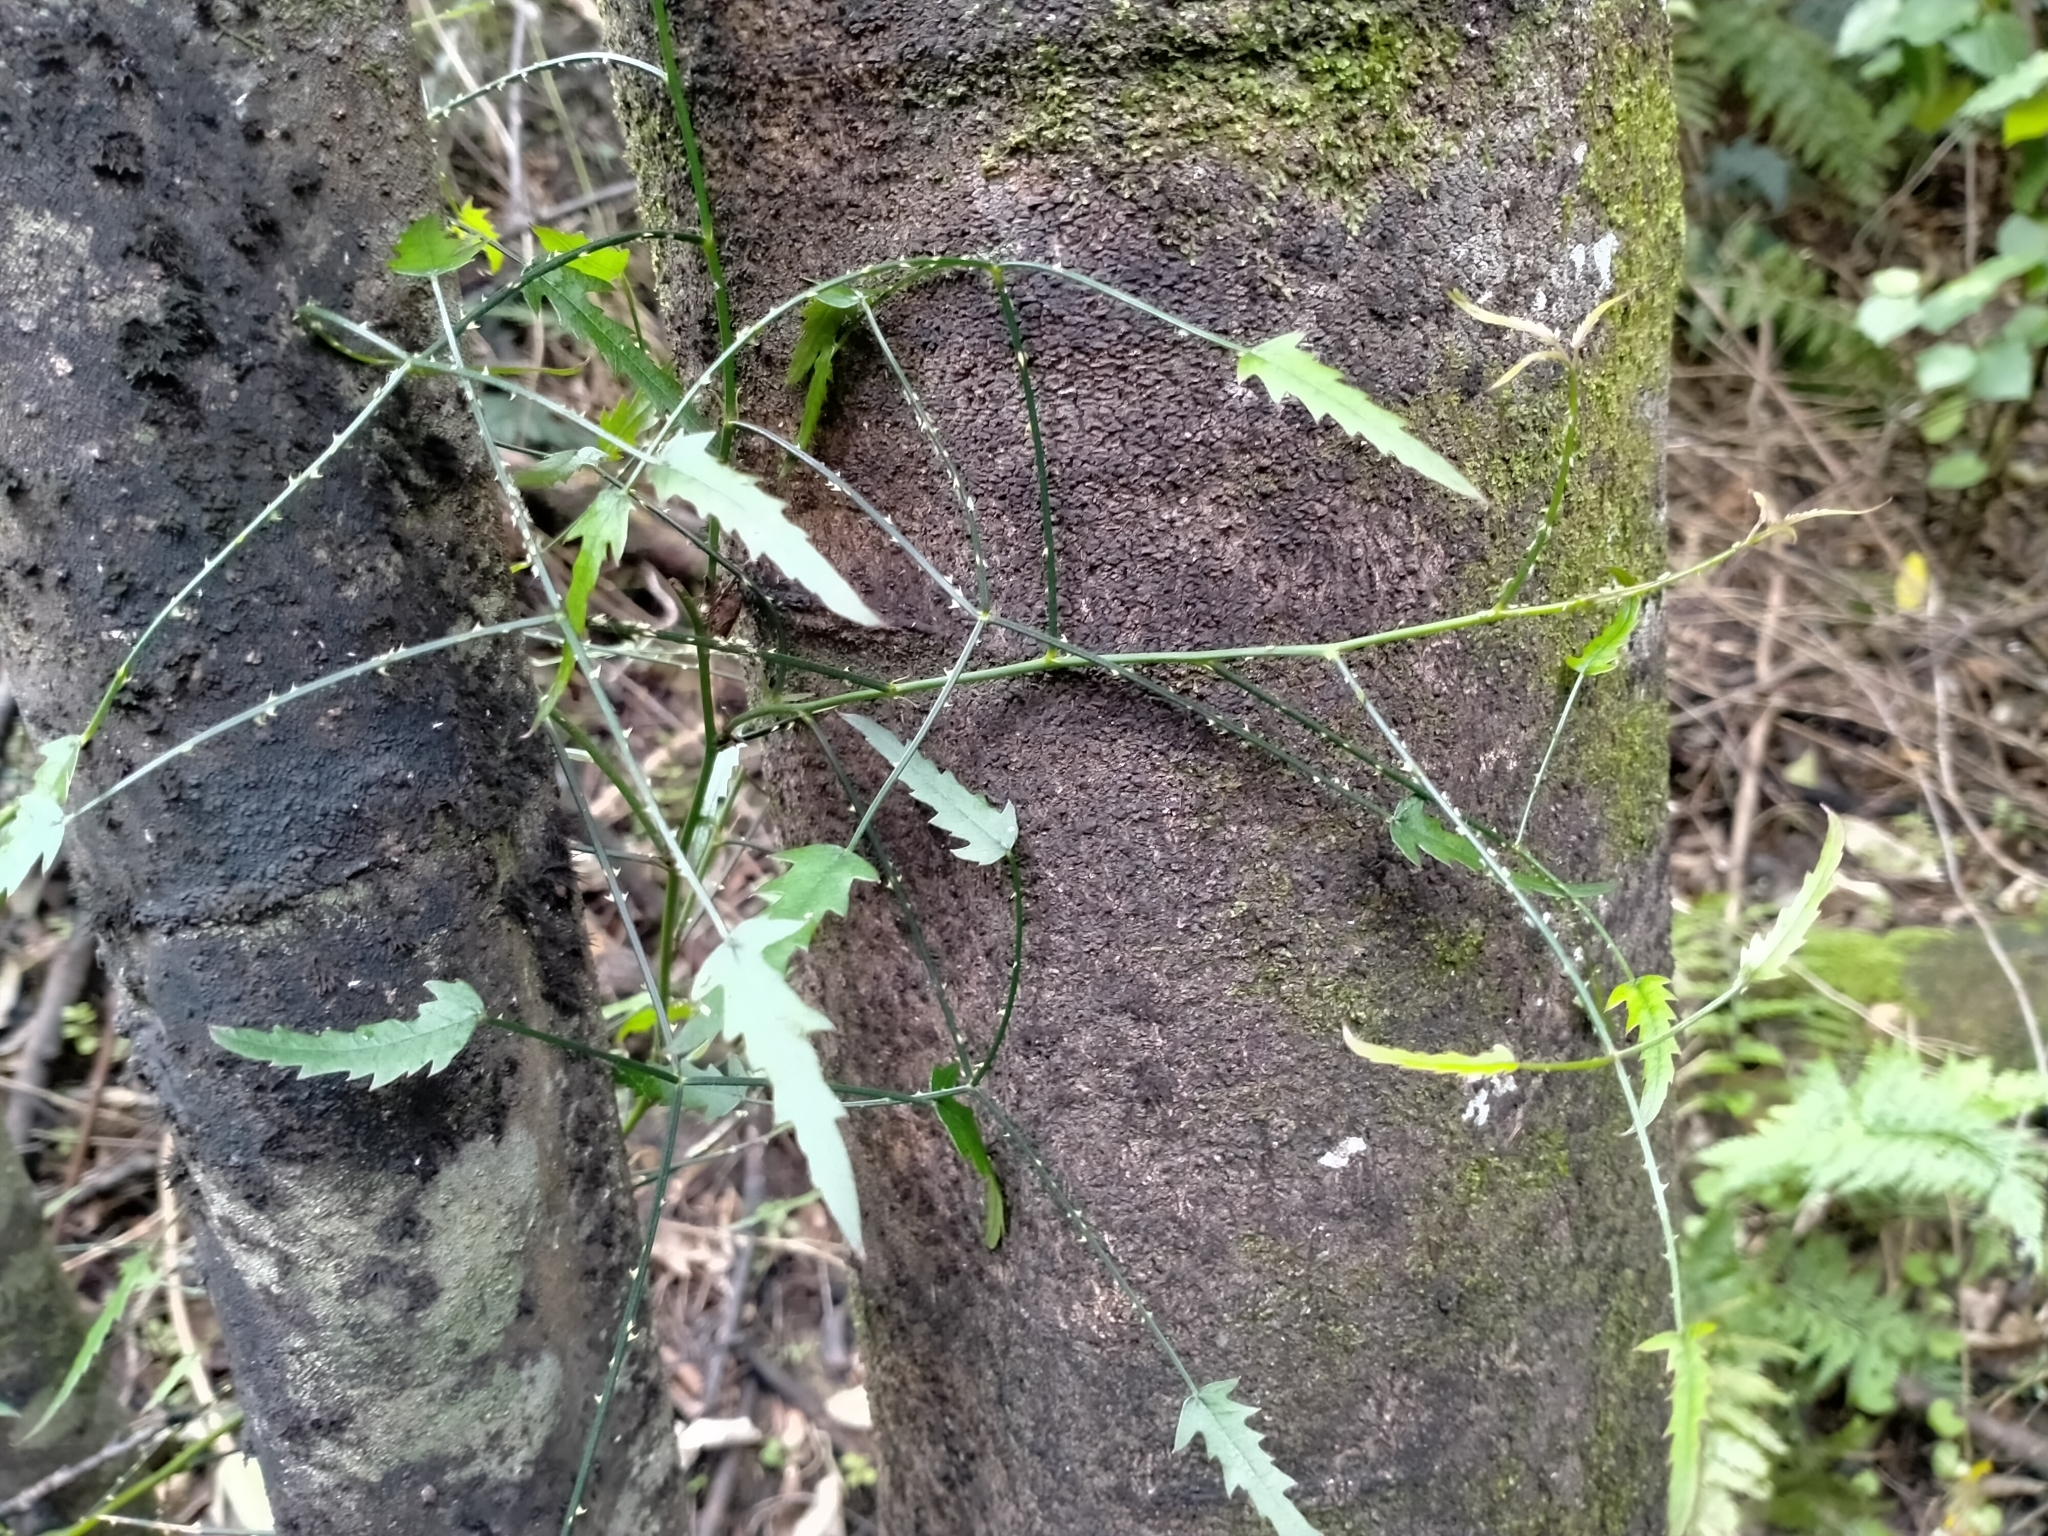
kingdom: Plantae
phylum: Tracheophyta
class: Magnoliopsida
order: Rosales
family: Rosaceae
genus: Rubus
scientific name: Rubus squarrosus
